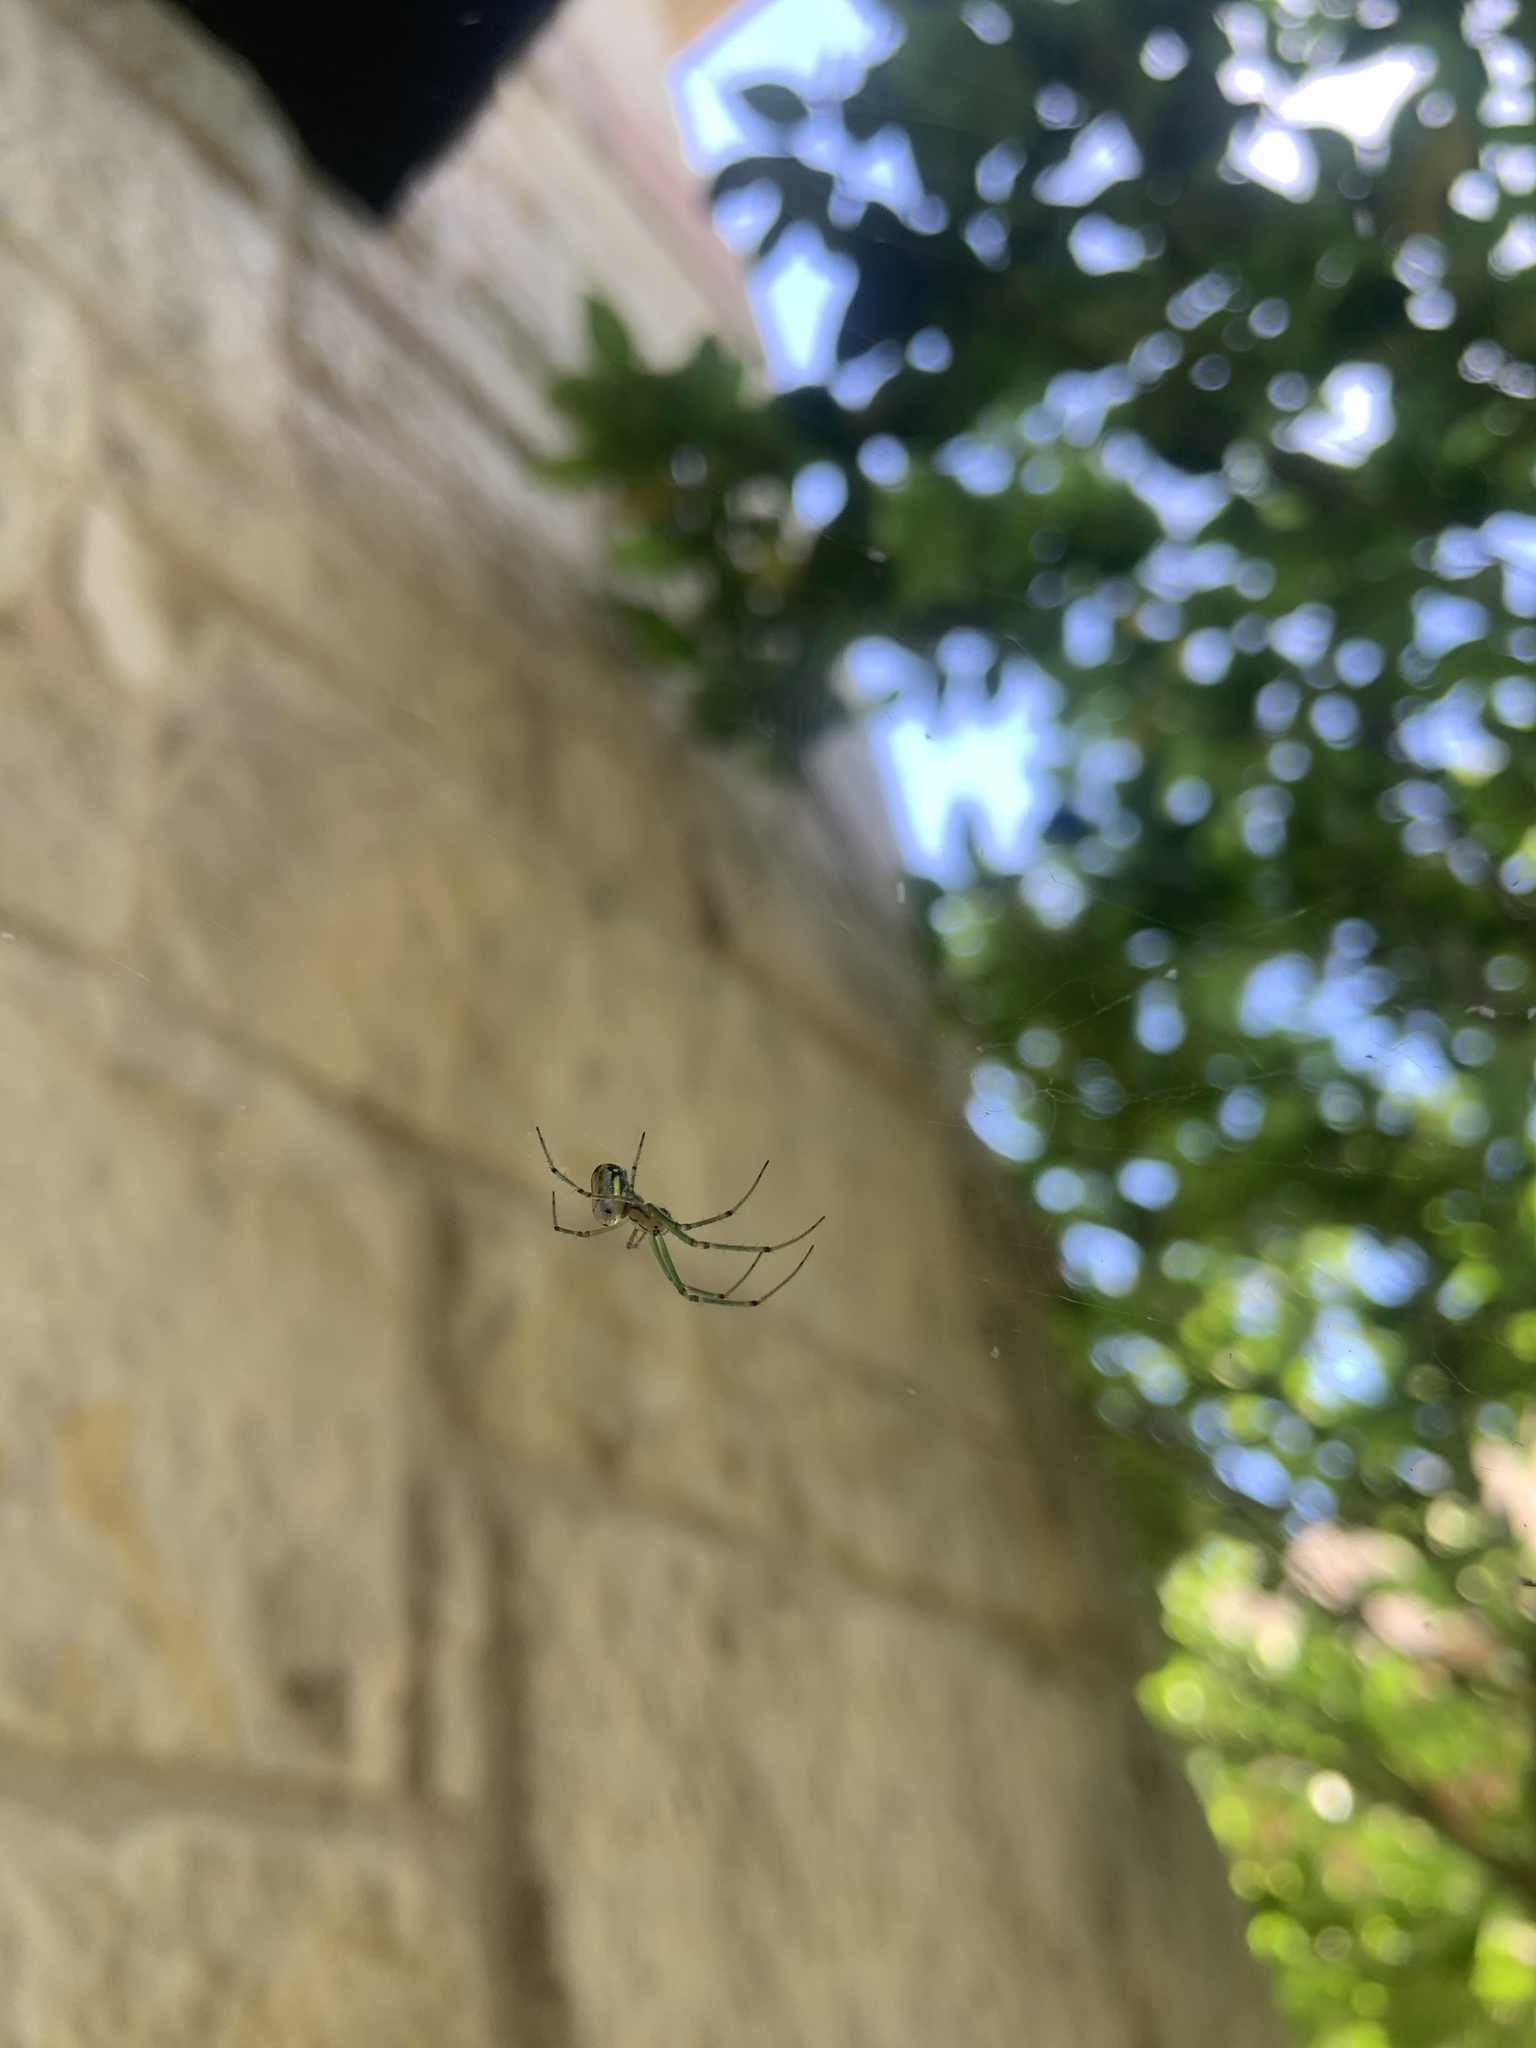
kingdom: Animalia
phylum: Arthropoda
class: Arachnida
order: Araneae
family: Tetragnathidae
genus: Leucauge
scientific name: Leucauge venusta
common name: Longjawed orb weavers
